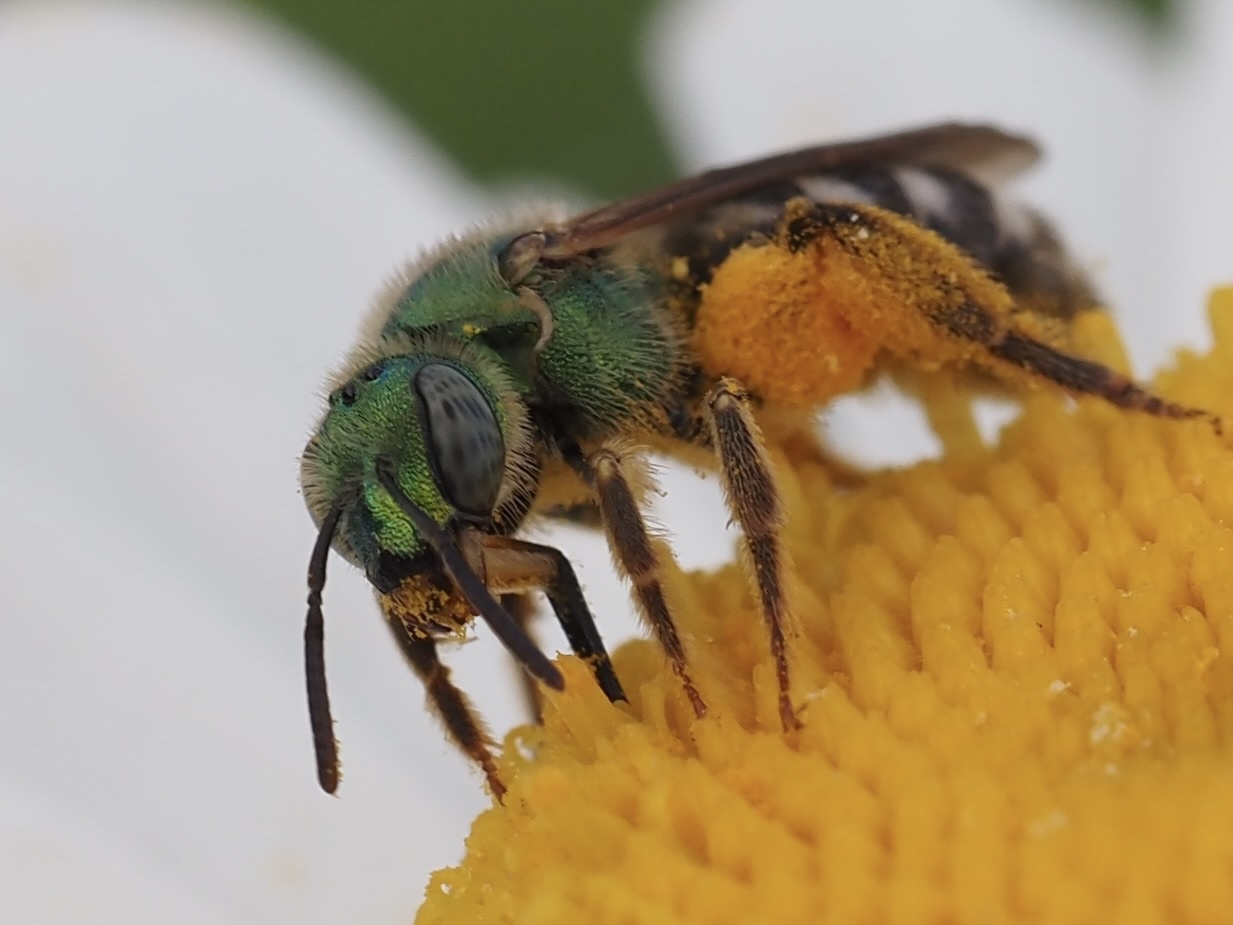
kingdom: Animalia
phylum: Arthropoda
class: Insecta
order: Hymenoptera
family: Halictidae
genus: Agapostemon
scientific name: Agapostemon virescens
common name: Bicolored striped sweat bee
